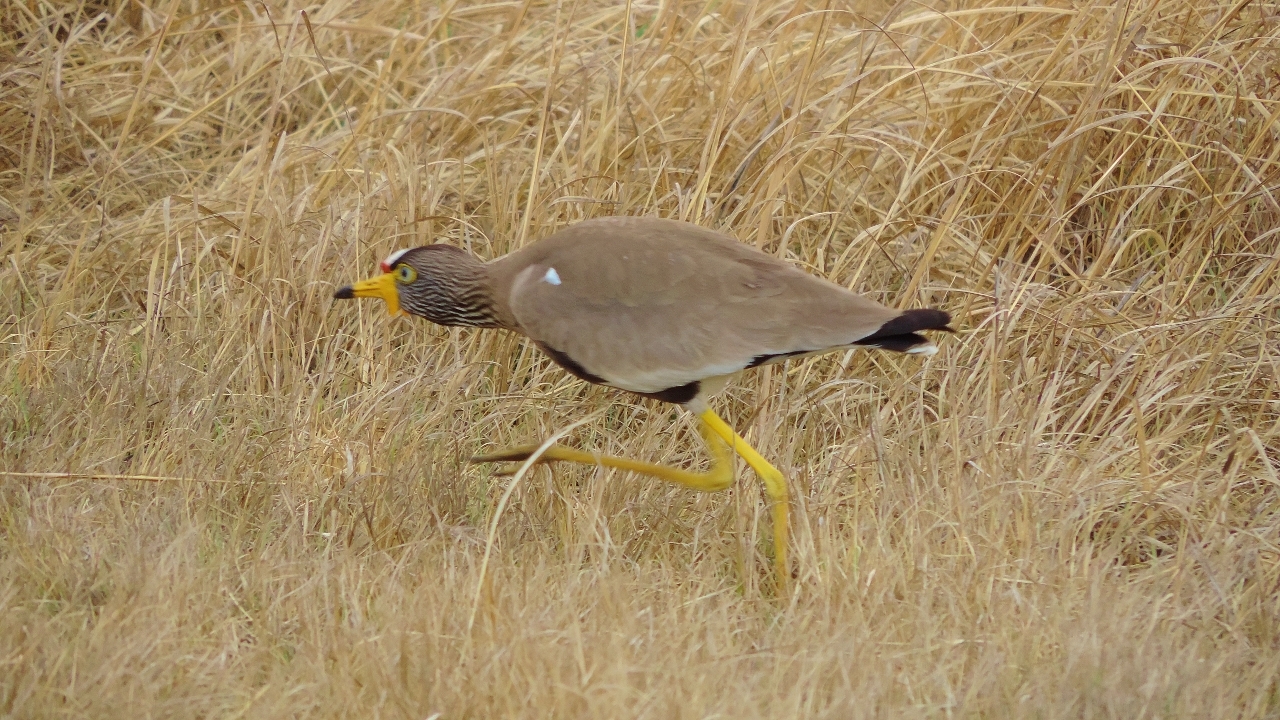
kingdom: Animalia
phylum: Chordata
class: Aves
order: Charadriiformes
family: Charadriidae
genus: Vanellus
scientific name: Vanellus senegallus
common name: African wattled lapwing
